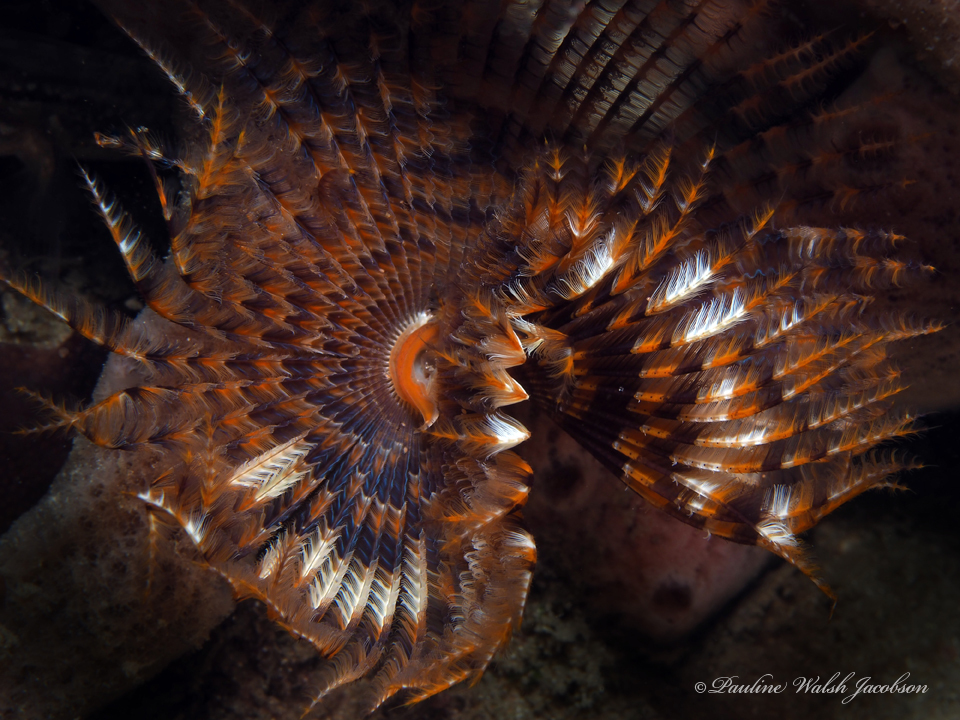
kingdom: Animalia
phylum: Annelida
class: Polychaeta
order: Sabellida
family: Sabellidae
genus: Branchiomma
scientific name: Branchiomma nigromaculatum
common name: Black-spotted feather duster
